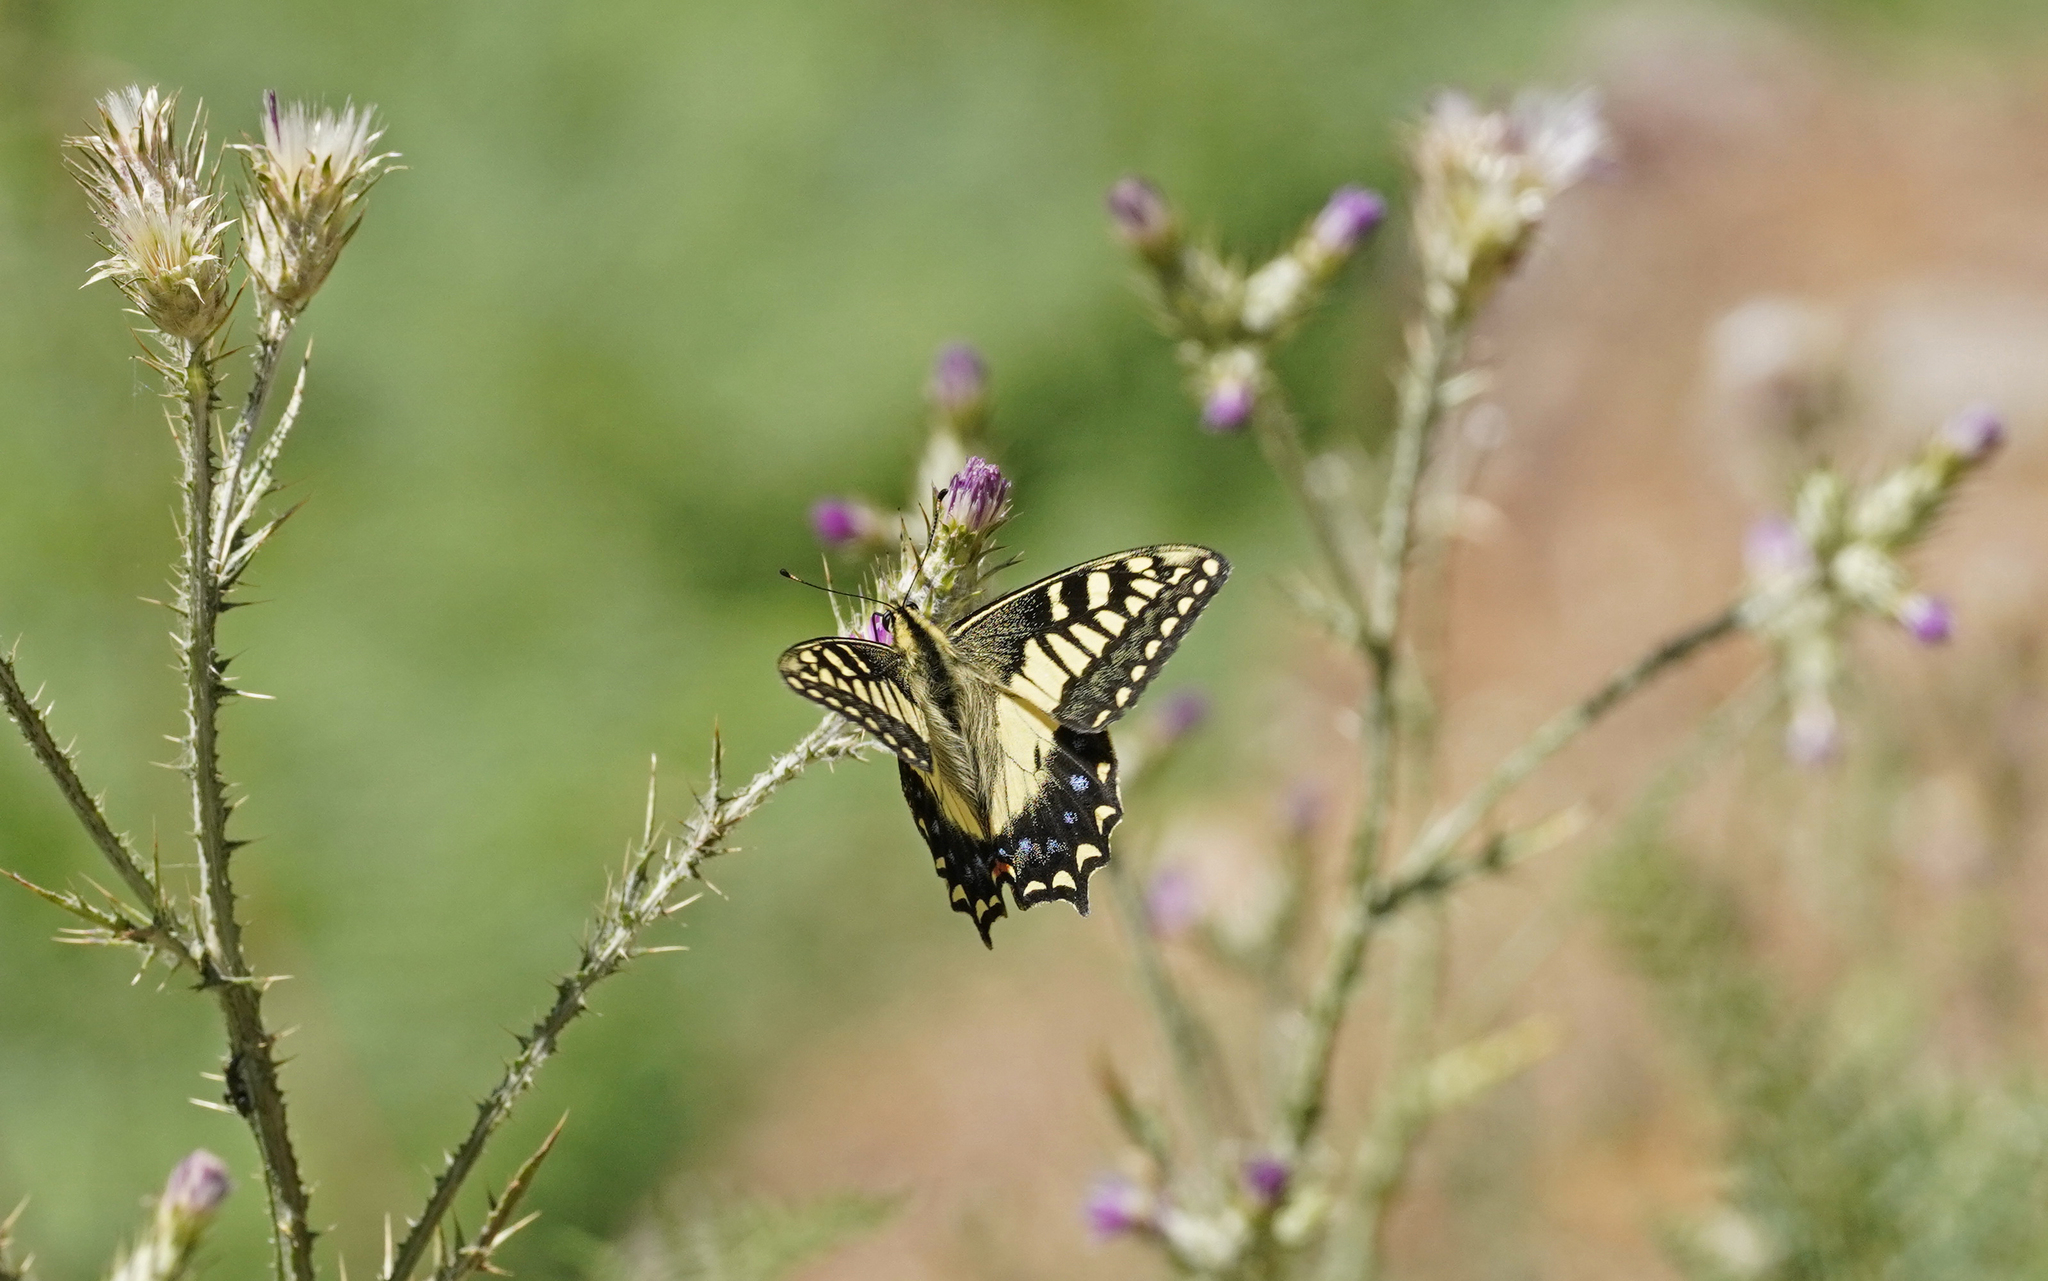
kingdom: Animalia
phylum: Arthropoda
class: Insecta
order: Lepidoptera
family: Papilionidae
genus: Papilio
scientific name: Papilio hospiton
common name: Corsican swallowtail
